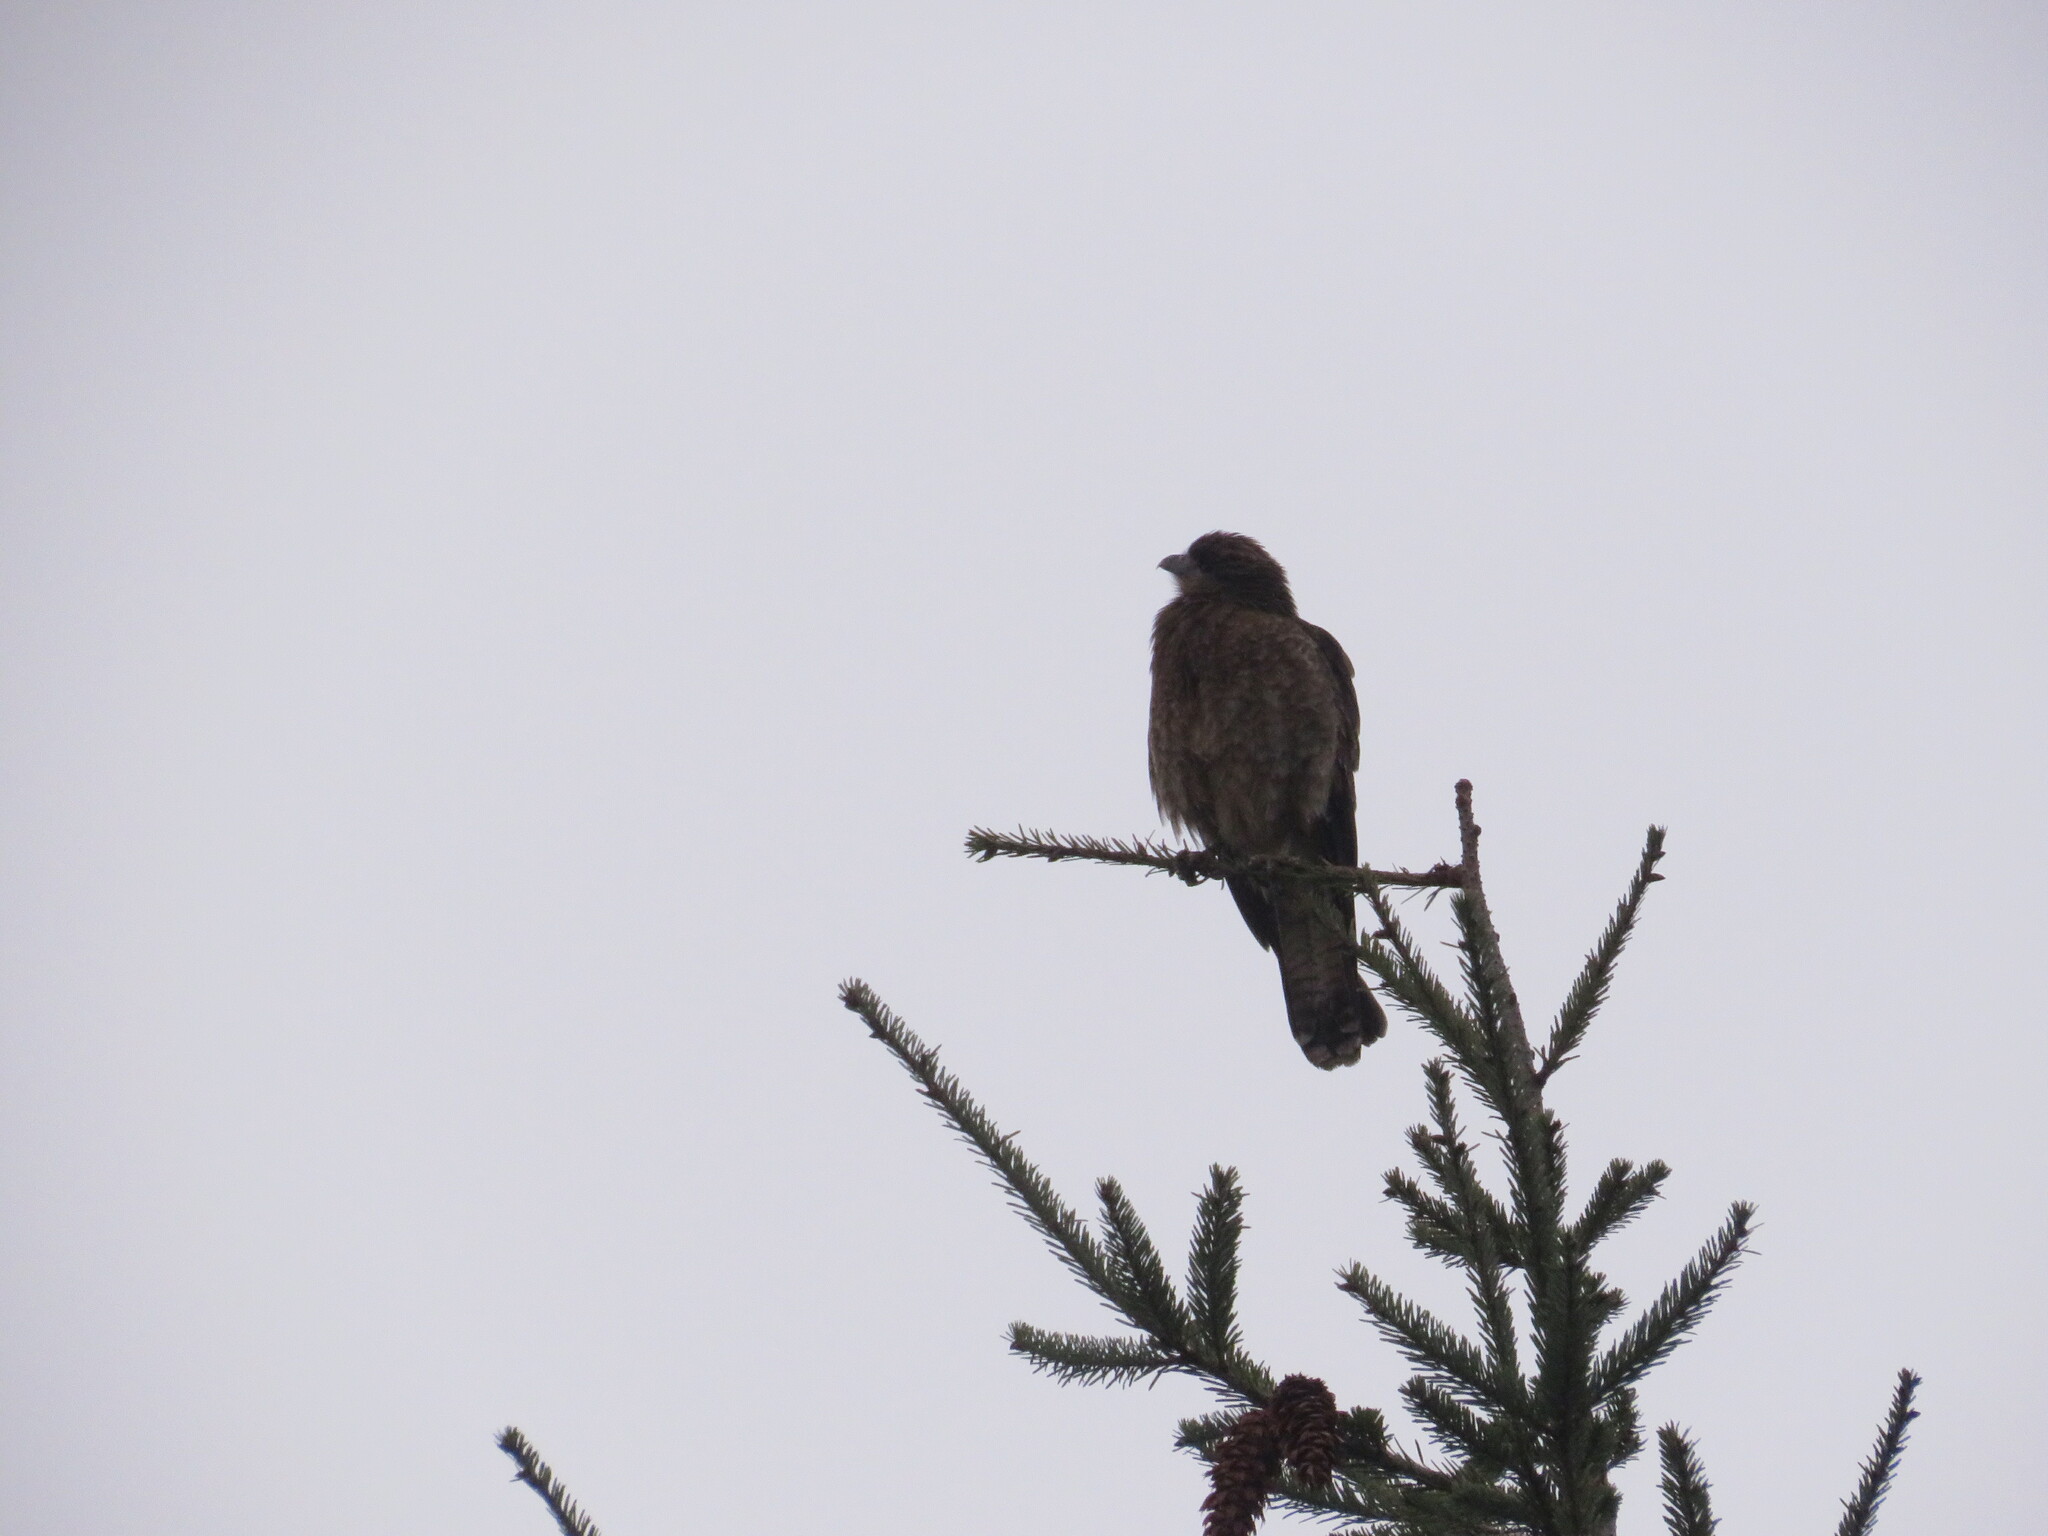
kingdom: Animalia
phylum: Chordata
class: Aves
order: Falconiformes
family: Falconidae
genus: Daptrius
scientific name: Daptrius
